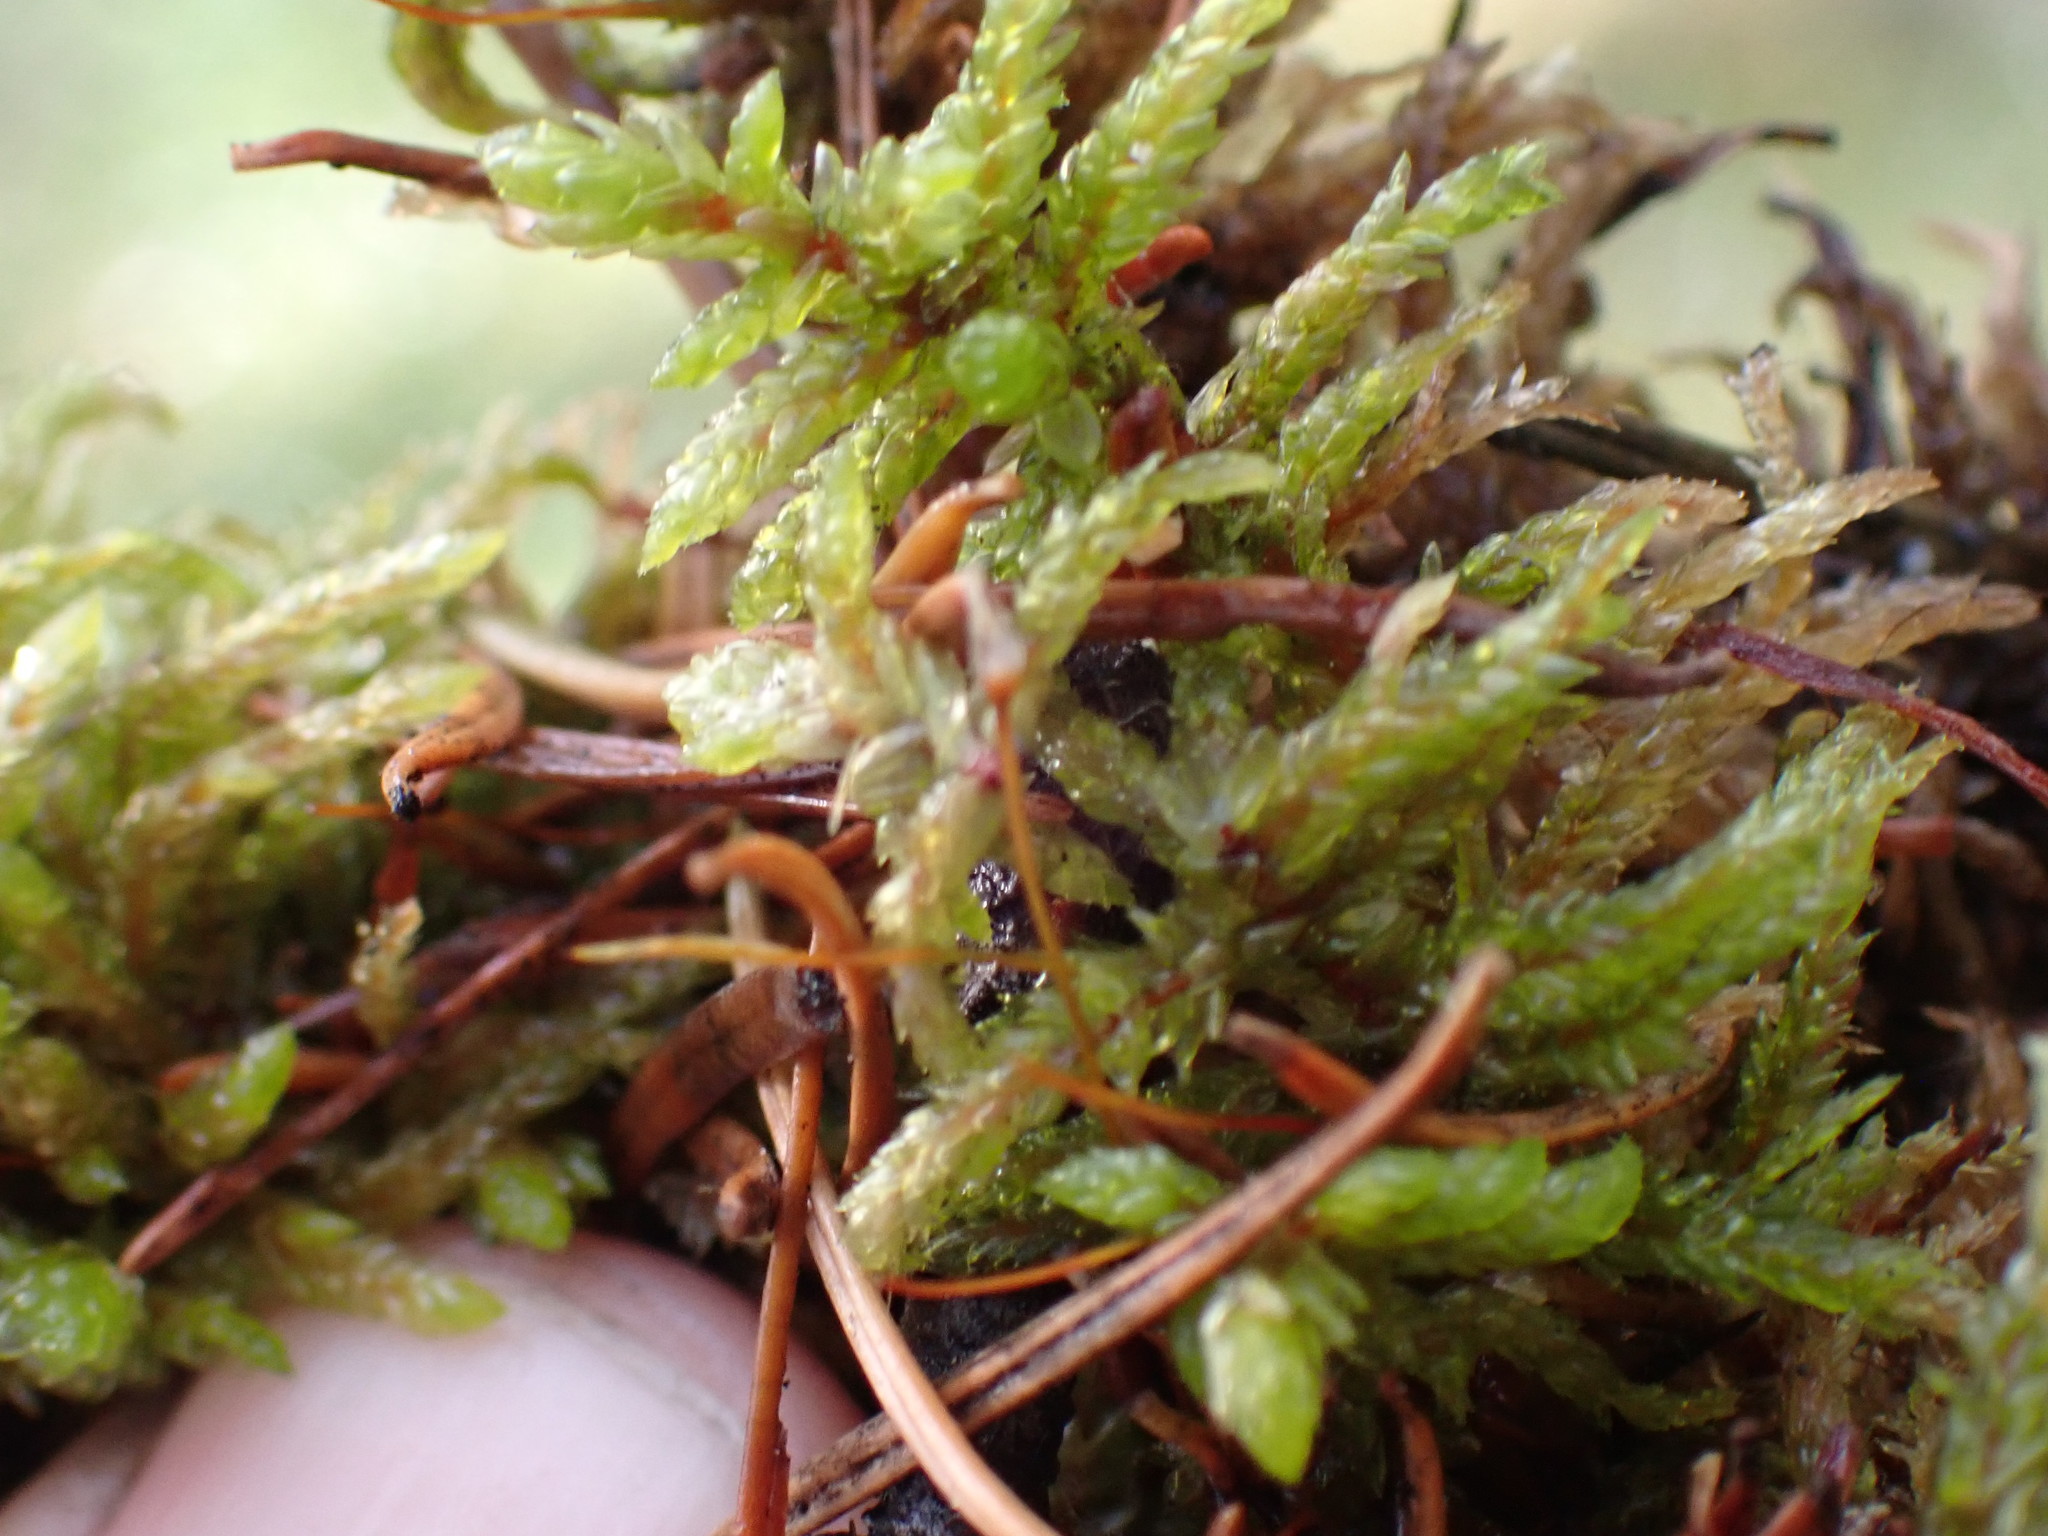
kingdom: Plantae
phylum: Bryophyta
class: Bryopsida
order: Hypnales
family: Hylocomiaceae
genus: Pleurozium
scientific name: Pleurozium schreberi
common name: Red-stemmed feather moss
